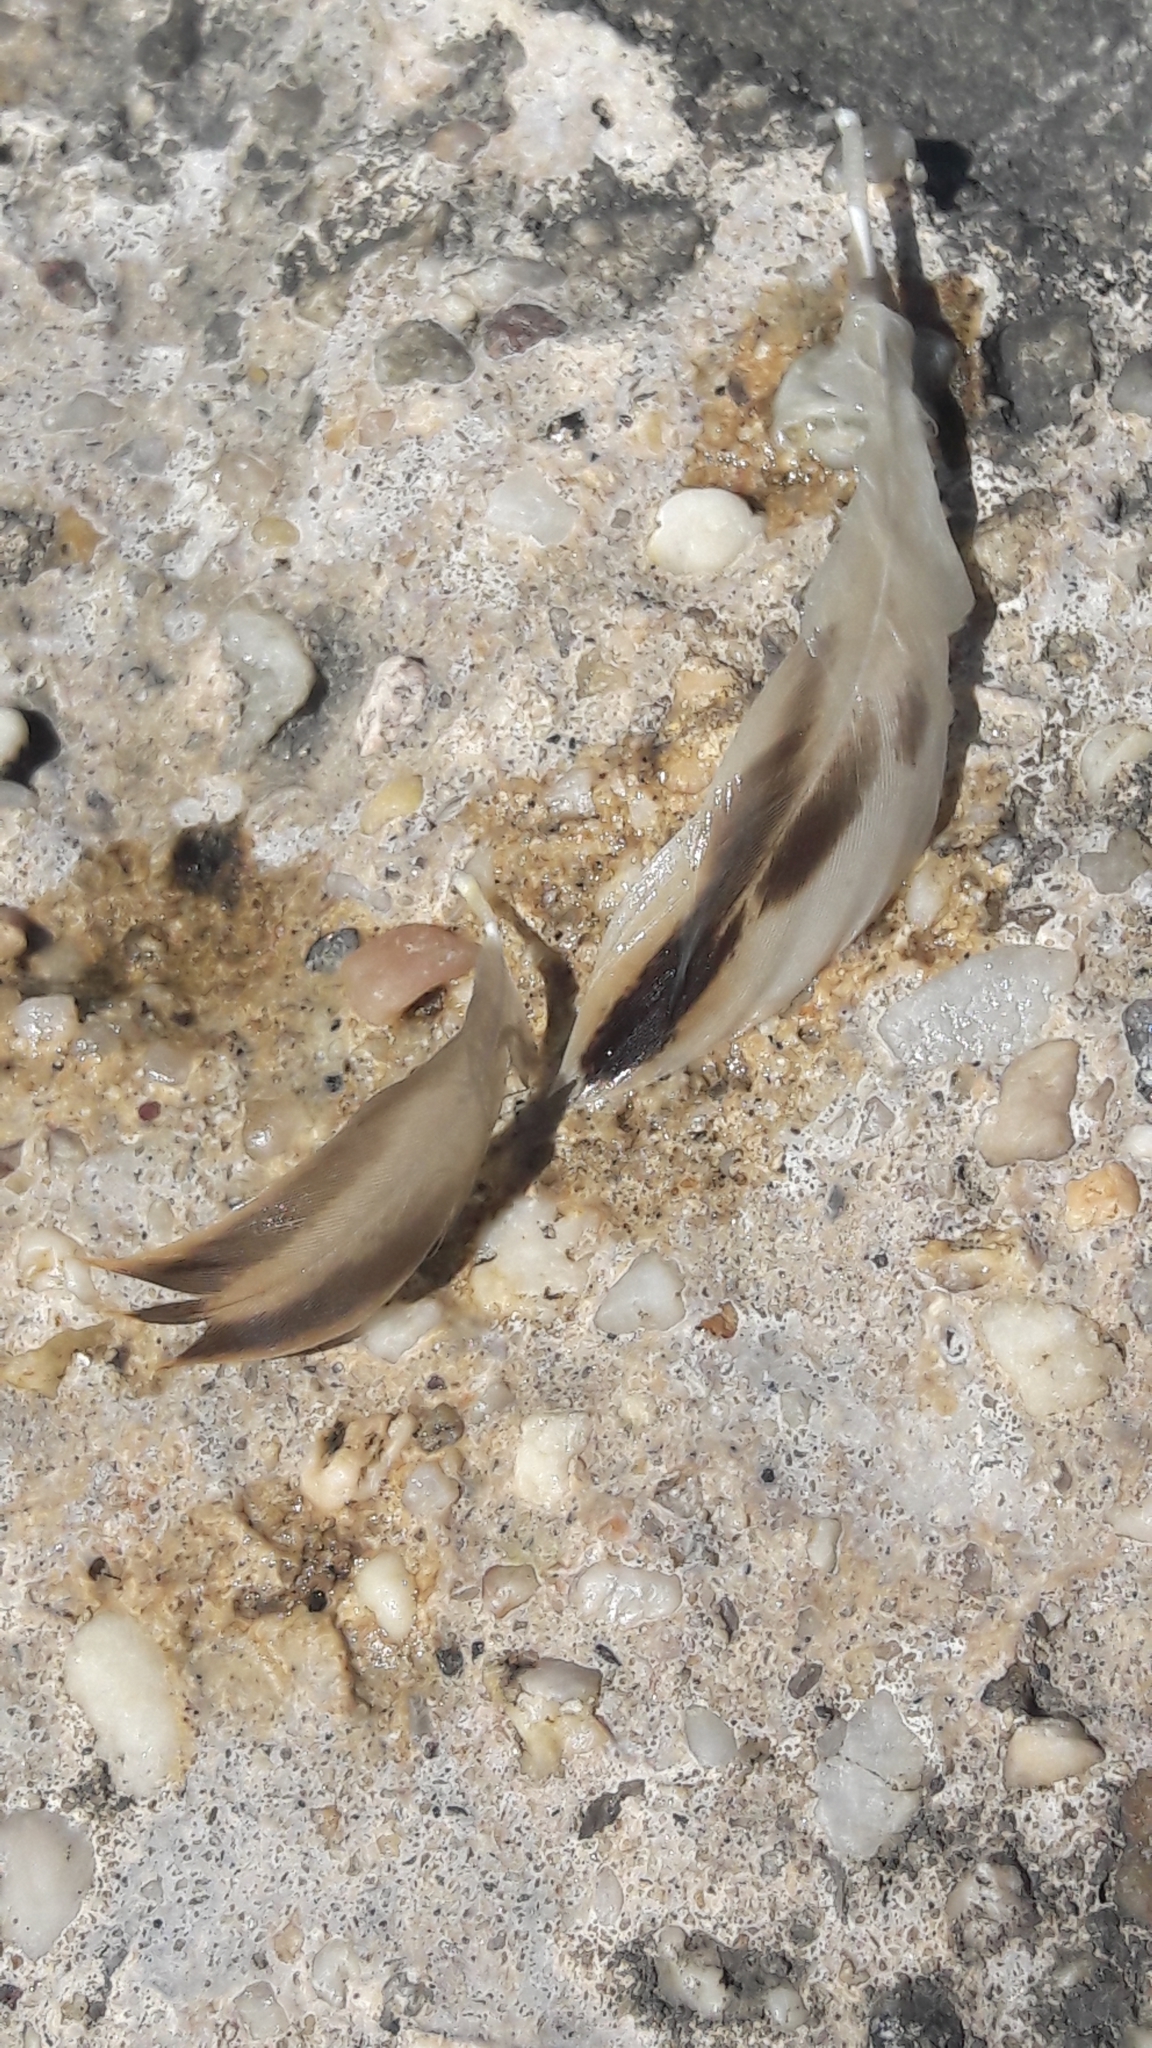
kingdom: Animalia
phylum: Chordata
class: Aves
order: Anseriformes
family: Anatidae
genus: Anas
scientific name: Anas platyrhynchos
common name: Mallard
